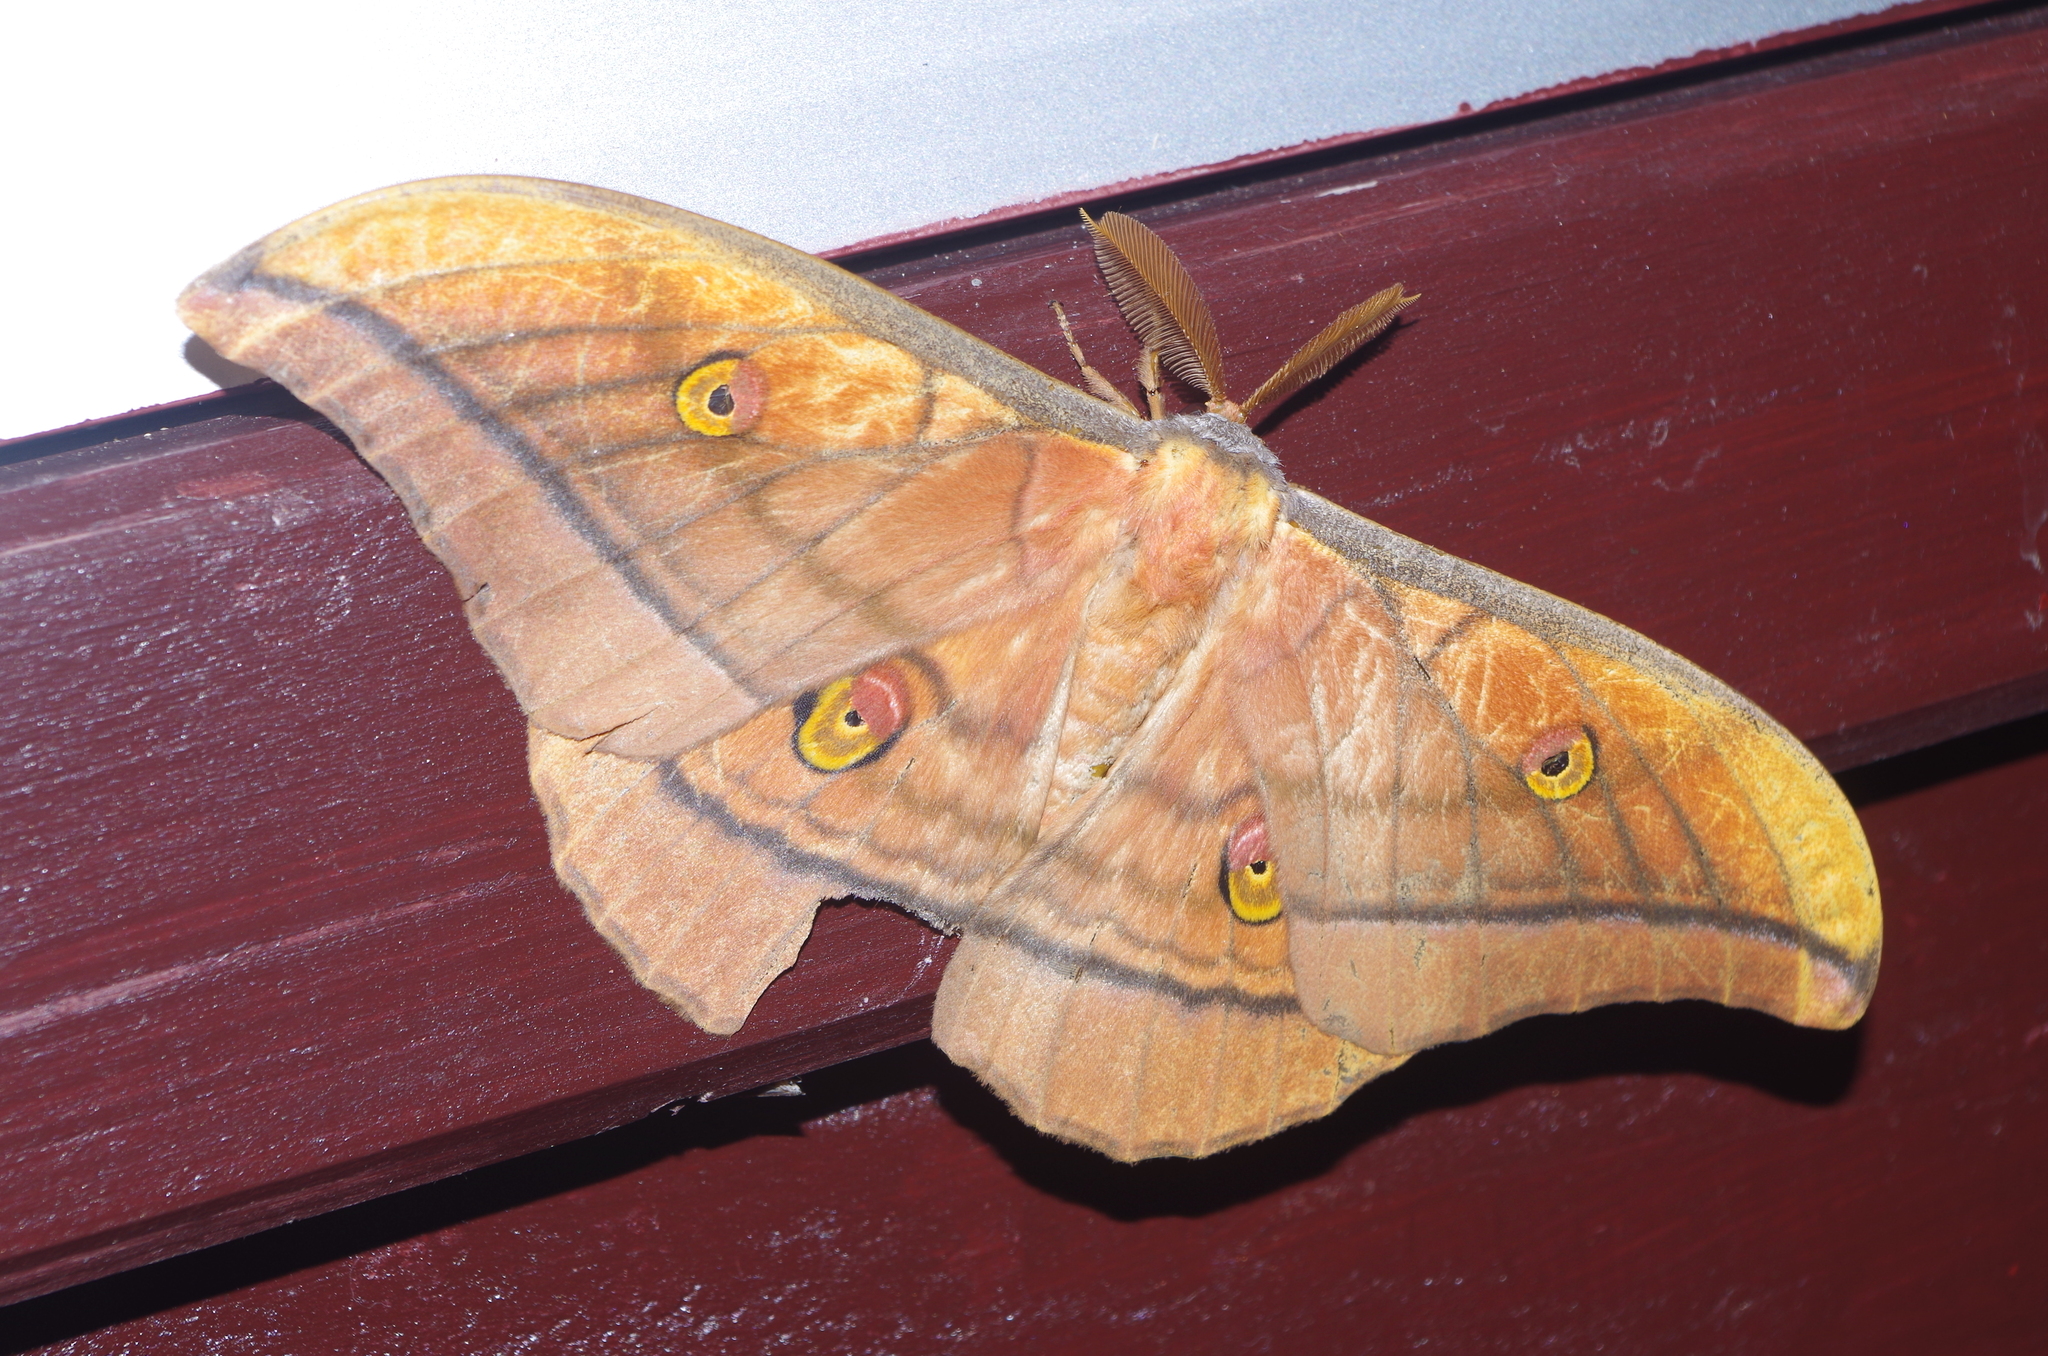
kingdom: Animalia
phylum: Arthropoda
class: Insecta
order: Lepidoptera
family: Saturniidae
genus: Antheraea
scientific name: Antheraea yamamai
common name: Japanese oak silk moth
